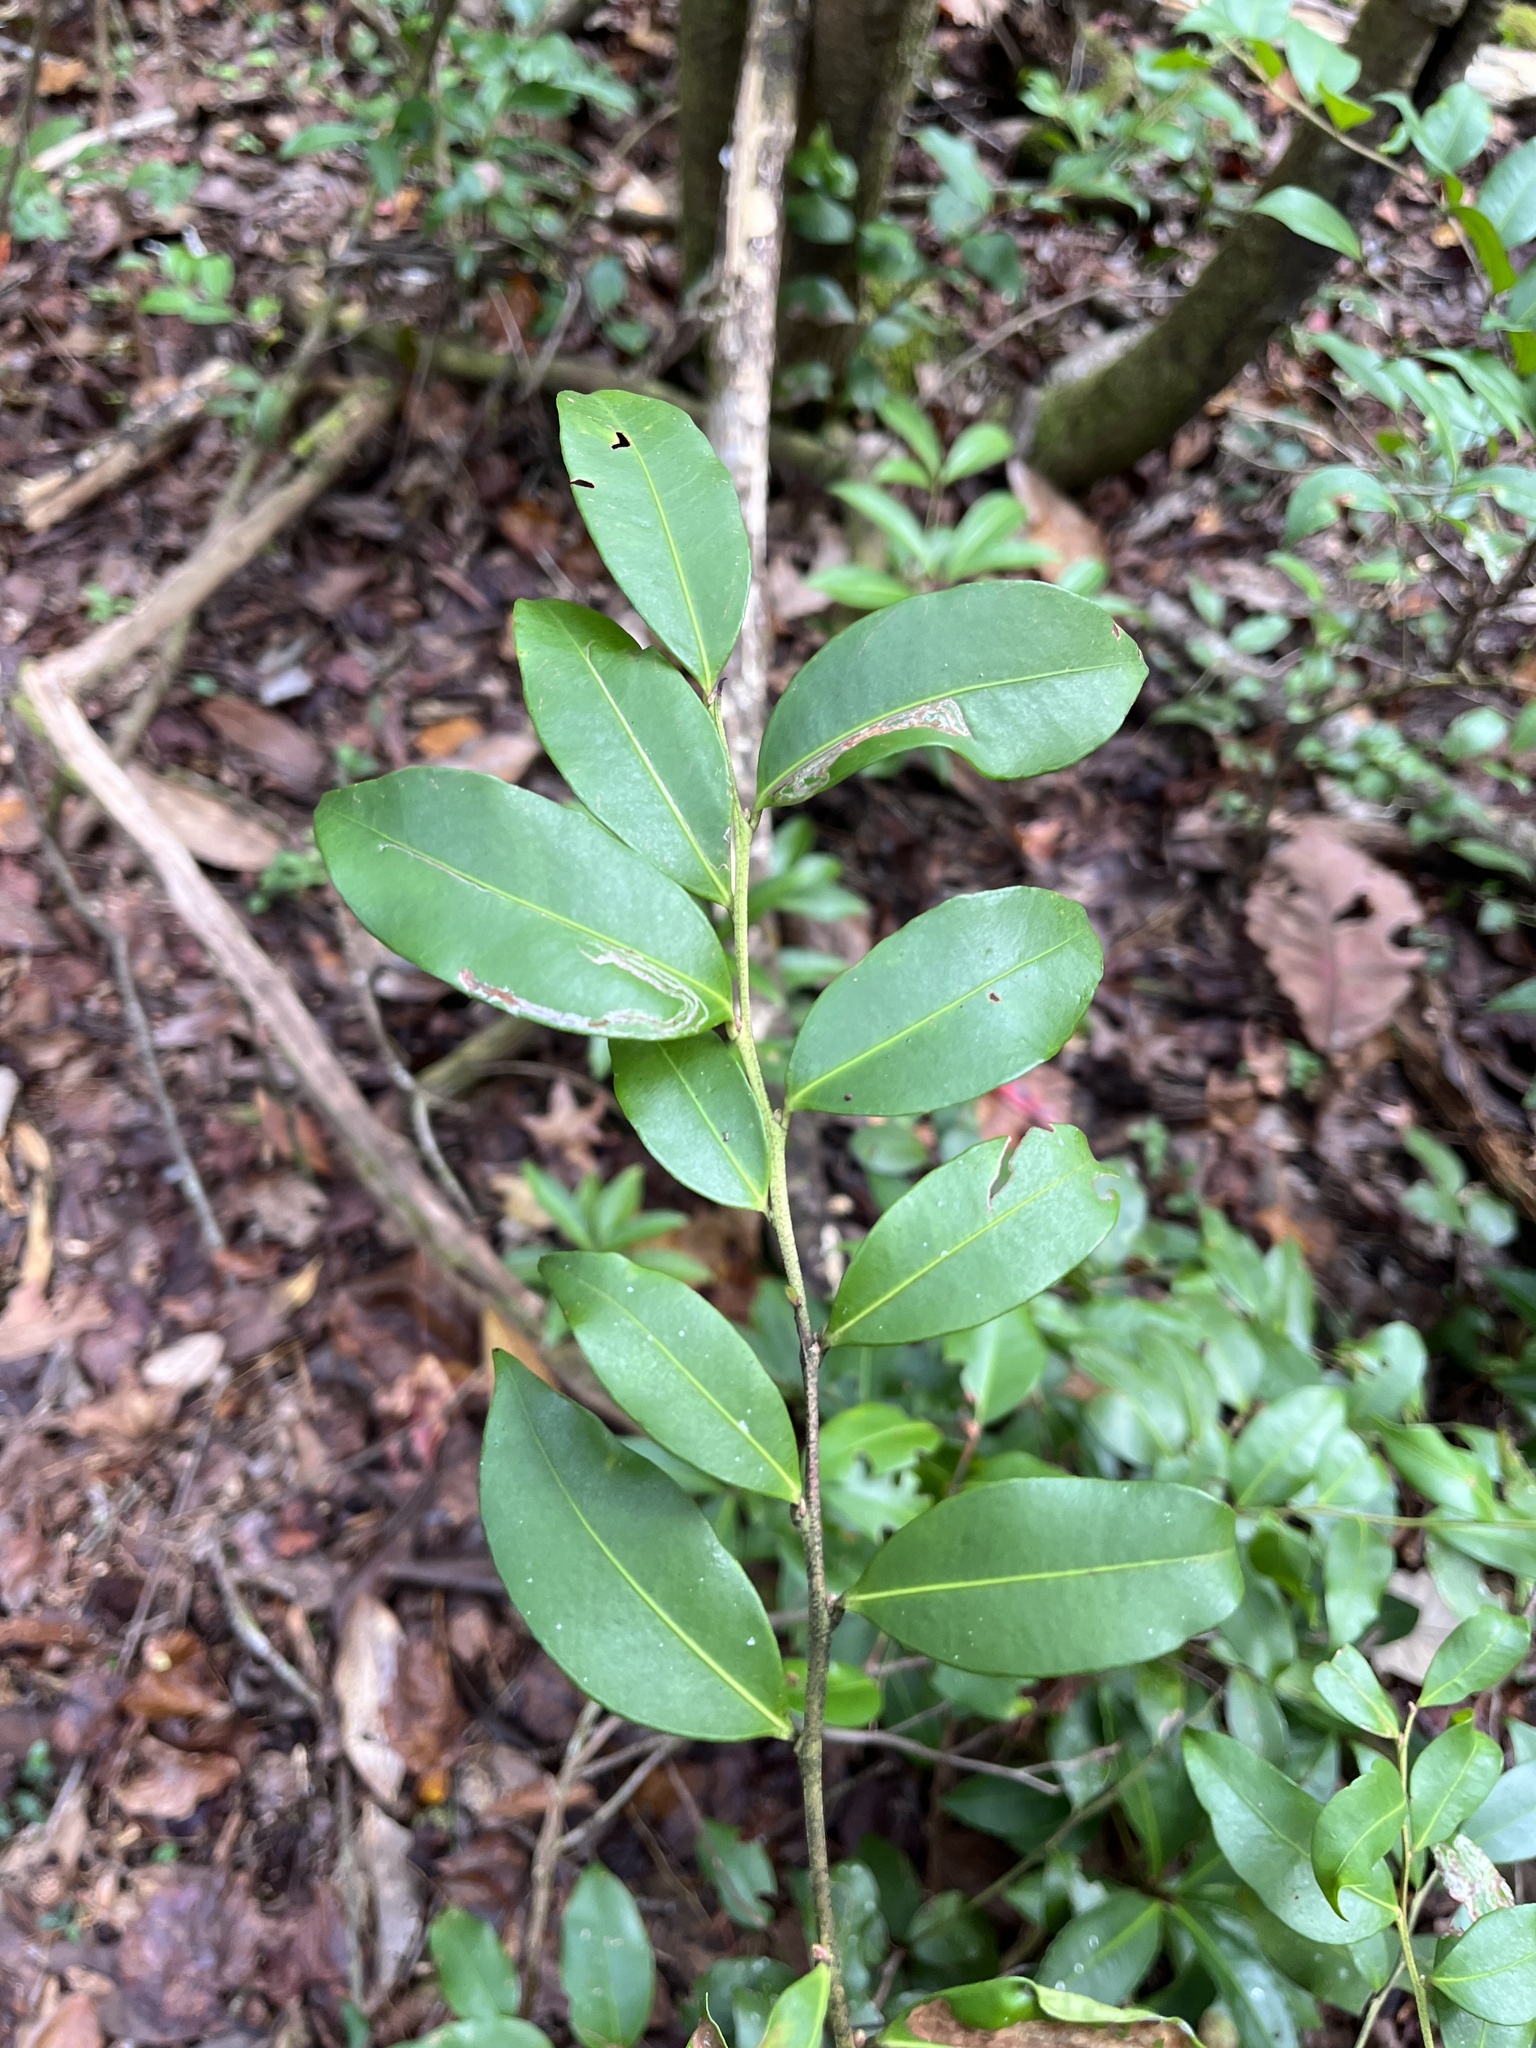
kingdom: Plantae
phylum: Tracheophyta
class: Magnoliopsida
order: Ericales
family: Ericaceae
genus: Lyonia
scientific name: Lyonia lucida
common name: Fetterbush
